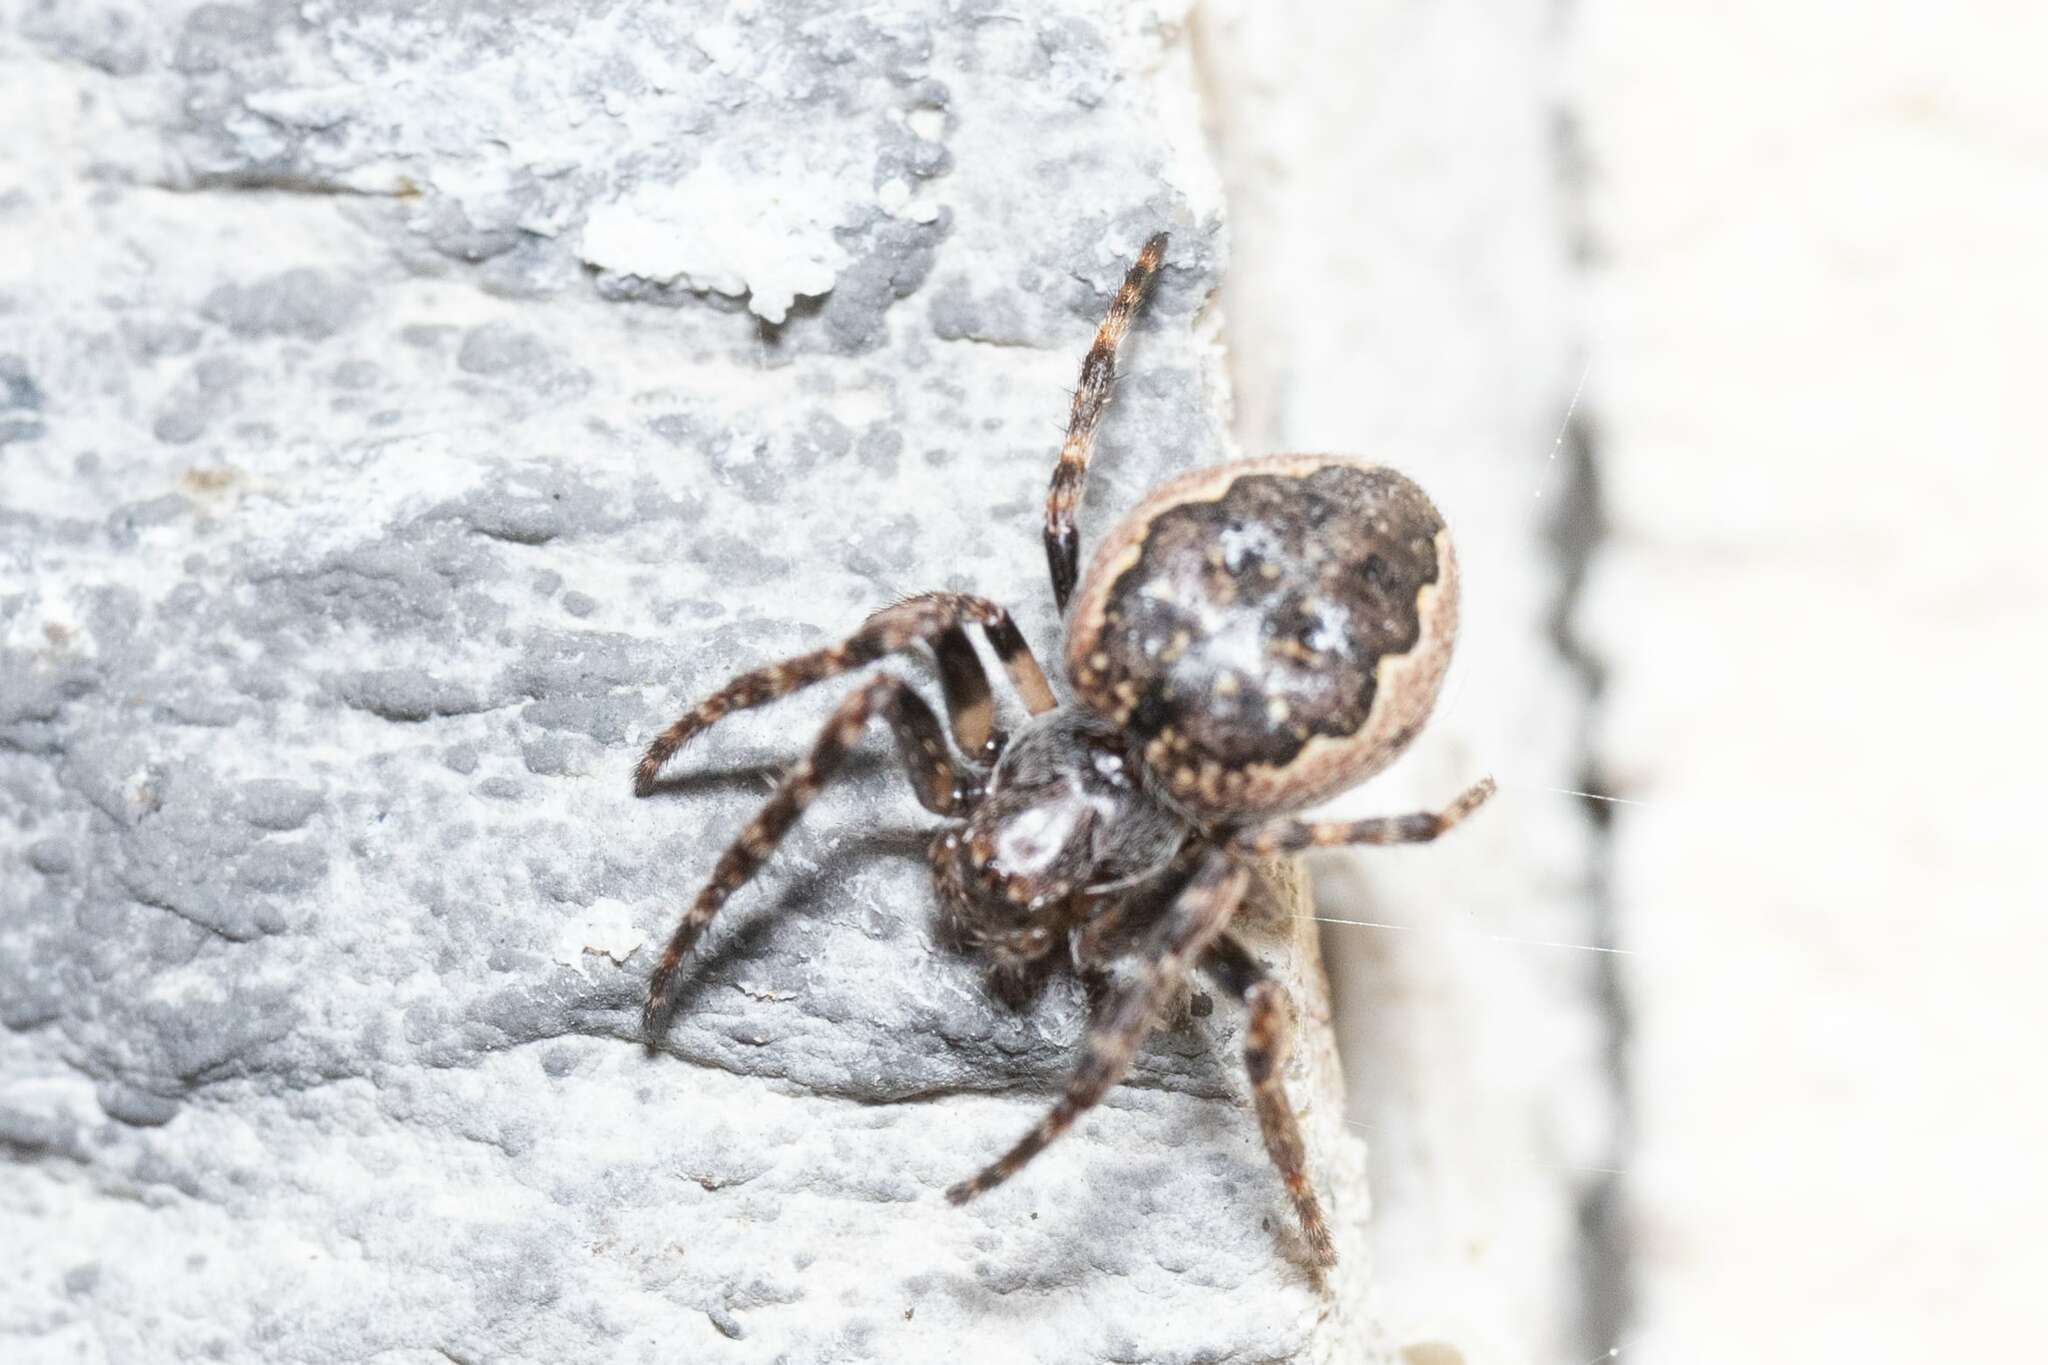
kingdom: Animalia
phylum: Arthropoda
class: Arachnida
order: Araneae
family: Araneidae
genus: Nuctenea
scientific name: Nuctenea umbratica
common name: Toad spider
